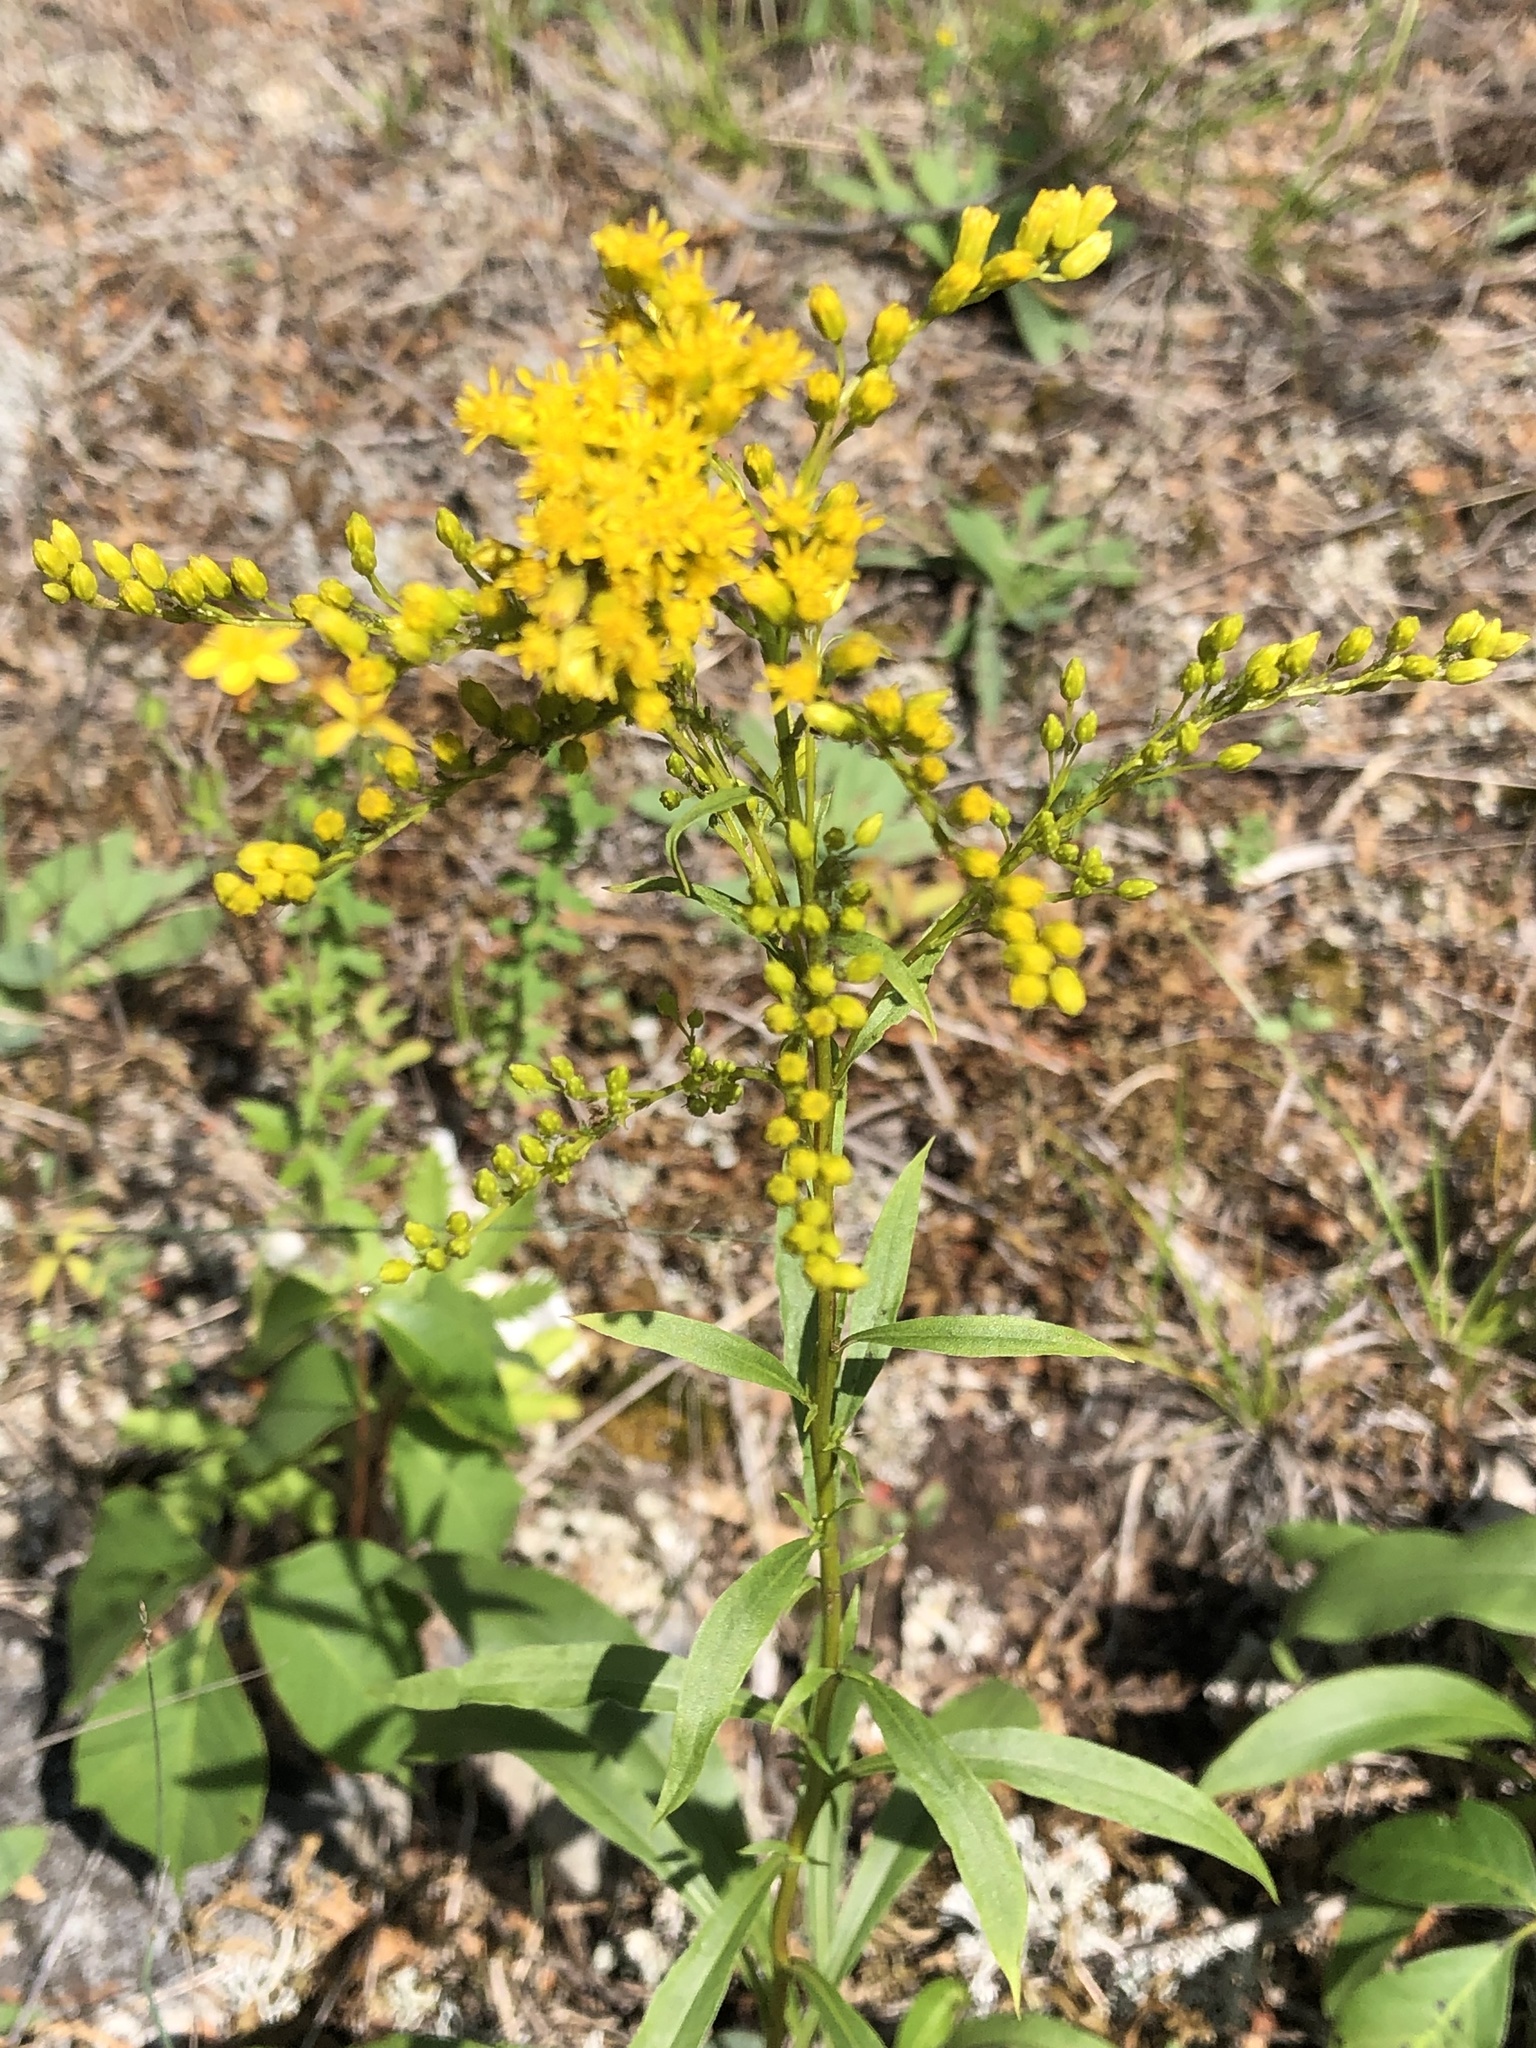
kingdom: Plantae
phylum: Tracheophyta
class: Magnoliopsida
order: Asterales
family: Asteraceae
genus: Solidago
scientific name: Solidago juncea
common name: Early goldenrod
